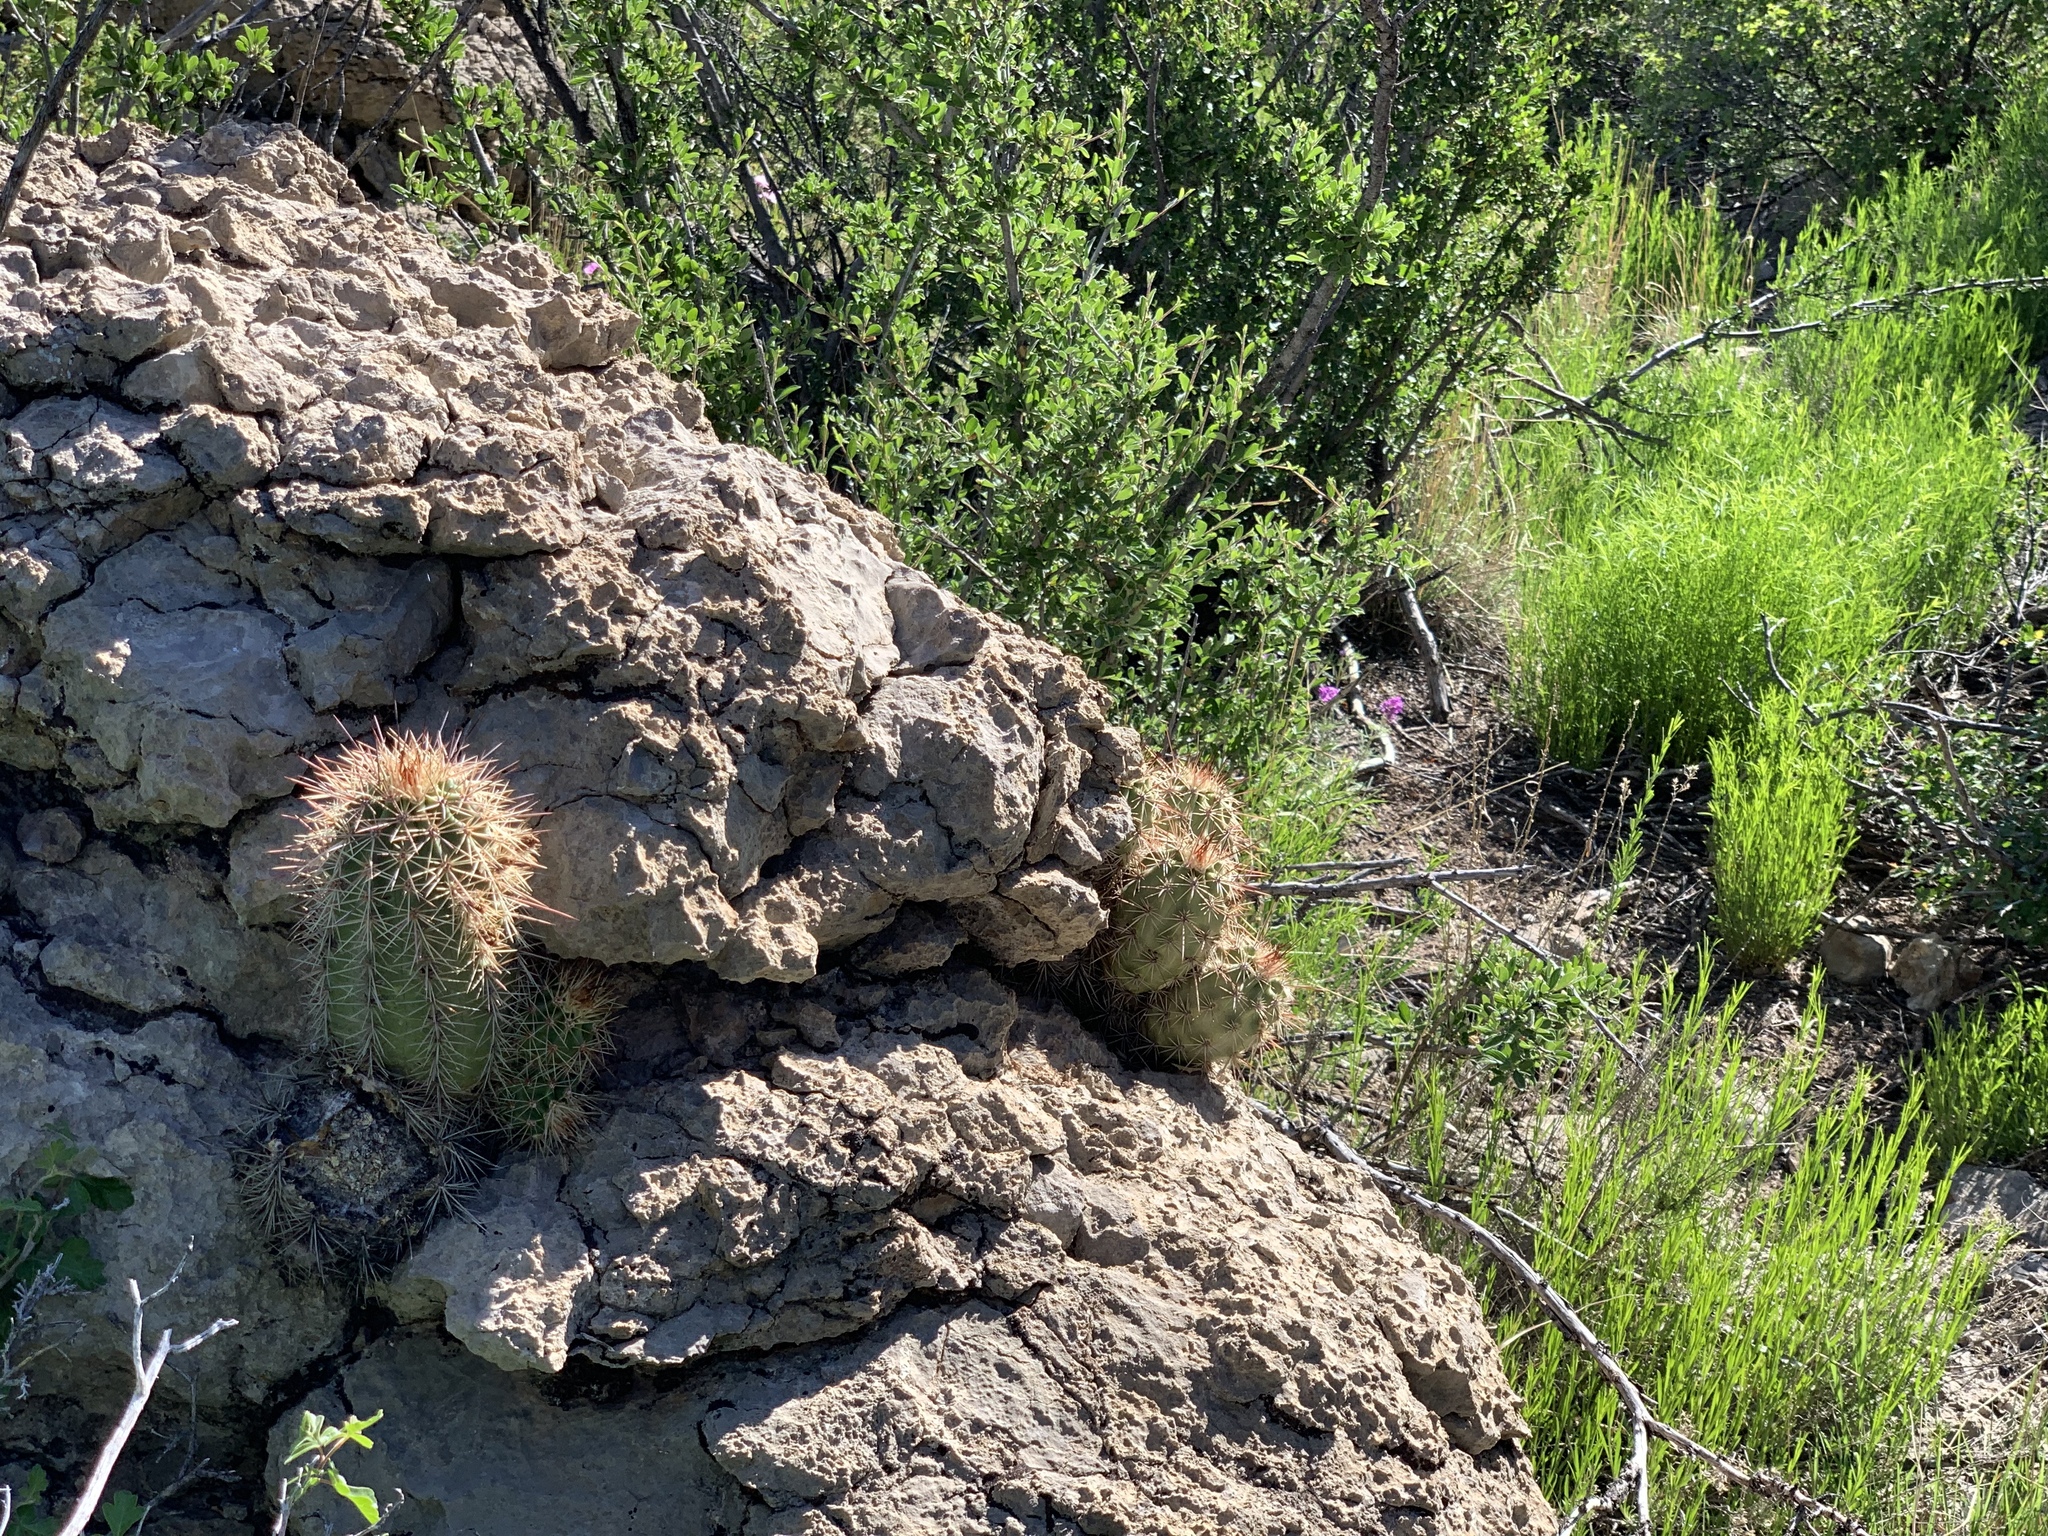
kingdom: Plantae
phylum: Tracheophyta
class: Magnoliopsida
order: Caryophyllales
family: Cactaceae
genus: Echinocereus
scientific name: Echinocereus coccineus
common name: Scarlet hedgehog cactus
